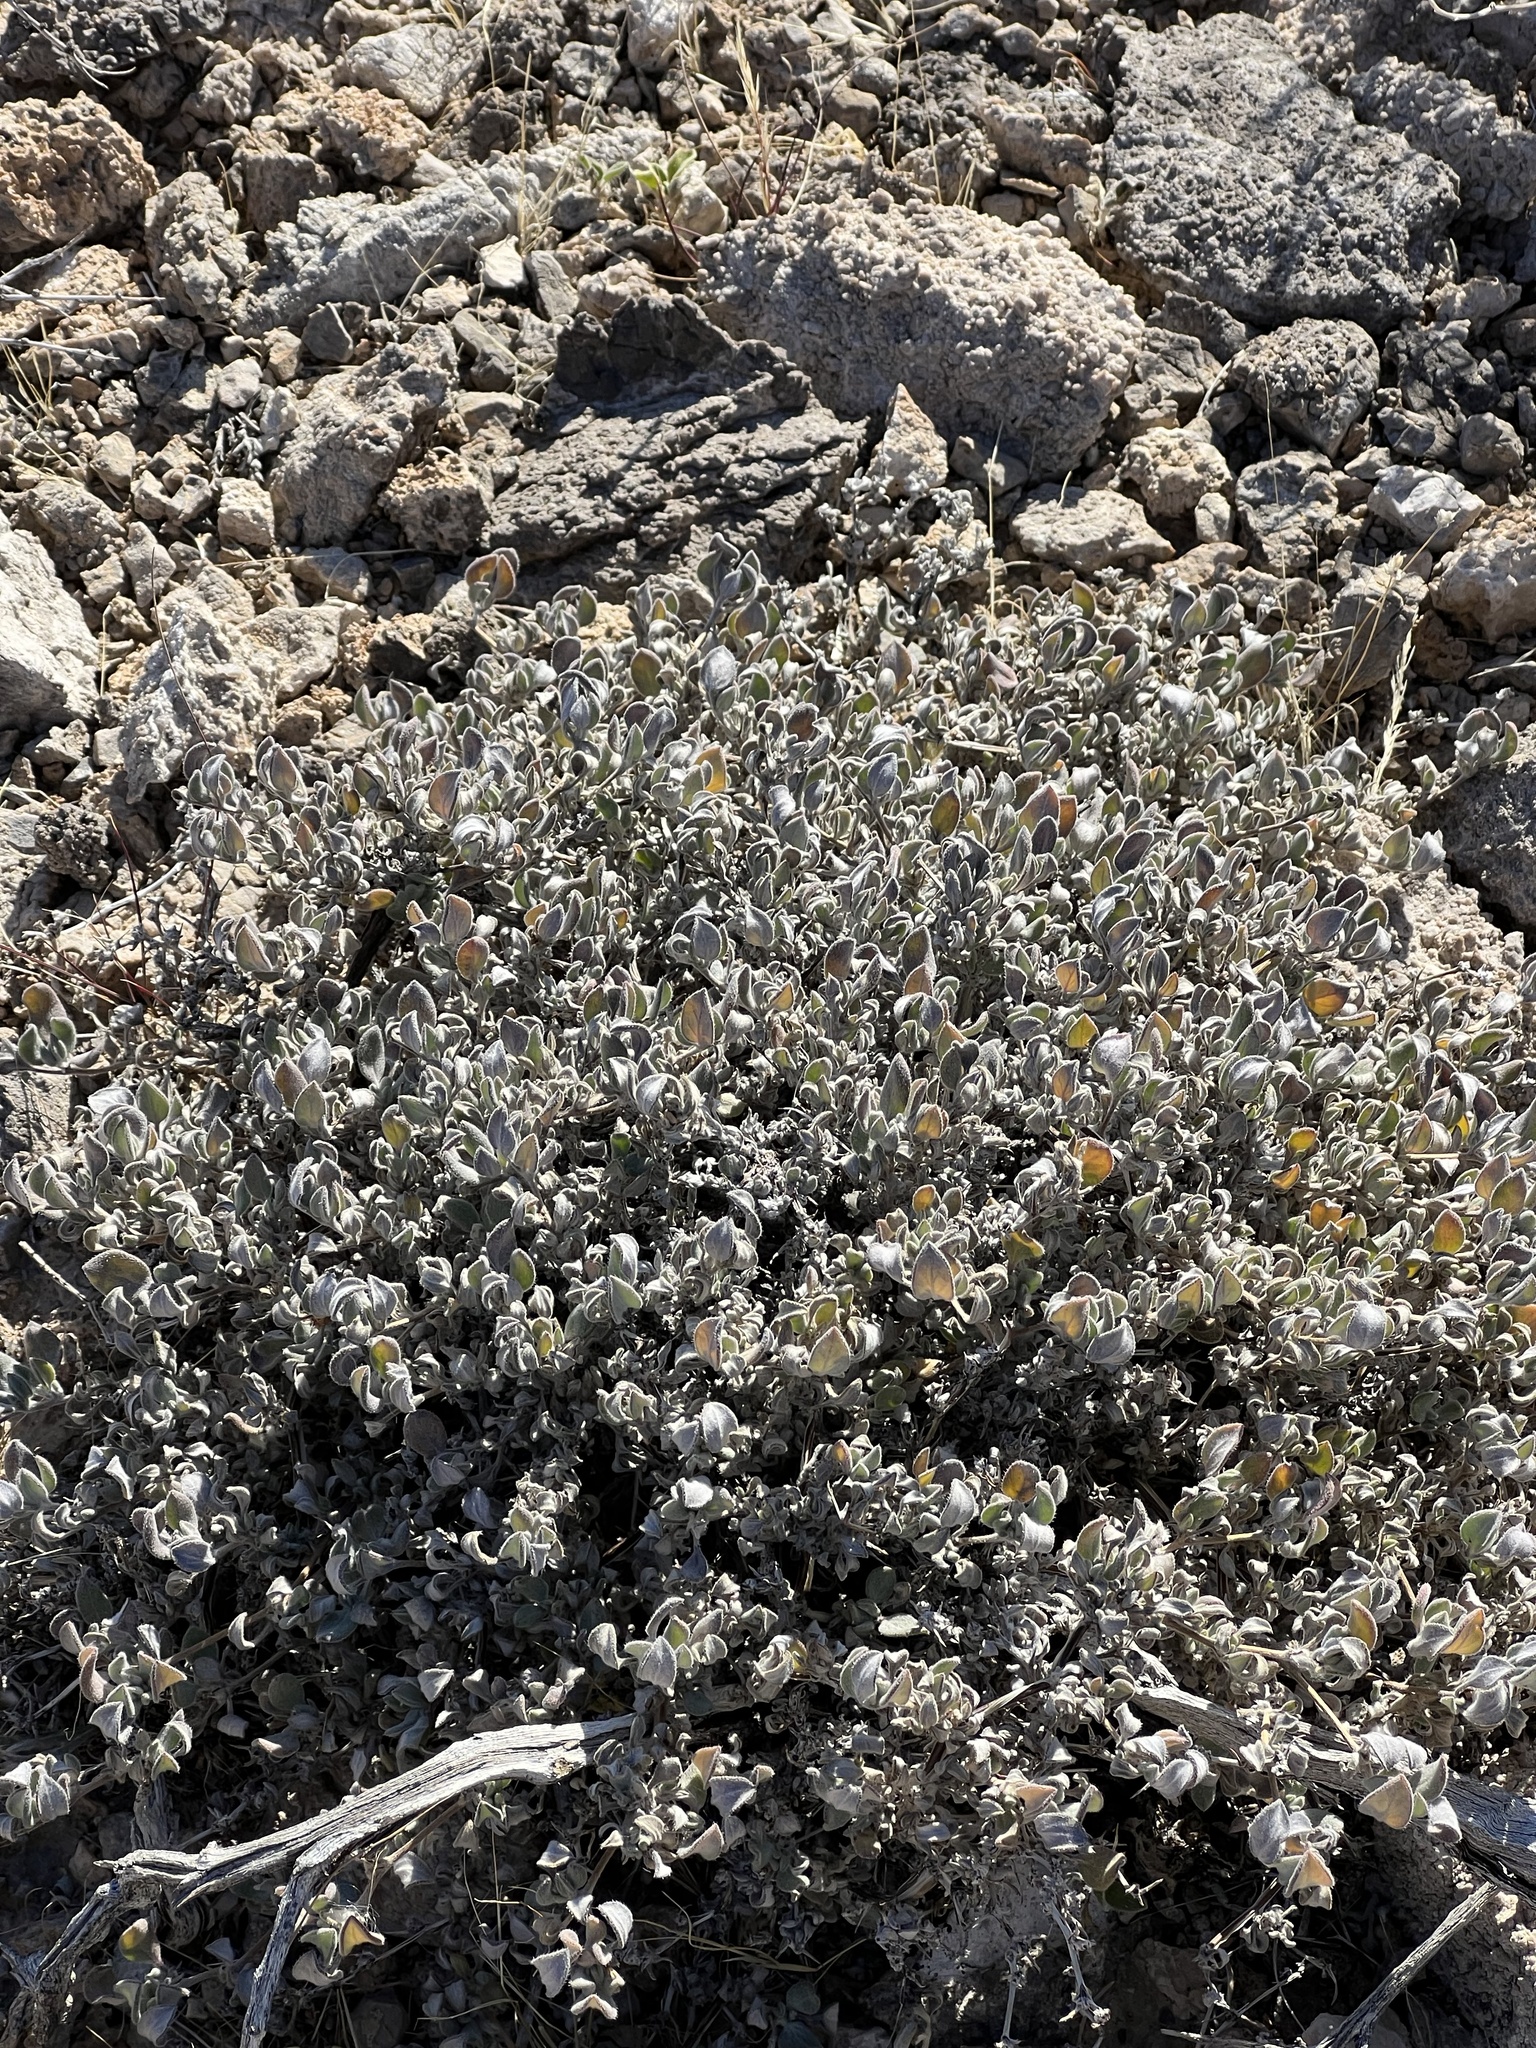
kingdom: Plantae
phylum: Tracheophyta
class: Magnoliopsida
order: Boraginales
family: Ehretiaceae
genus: Tiquilia
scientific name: Tiquilia canescens
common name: Hairy tiquilia
